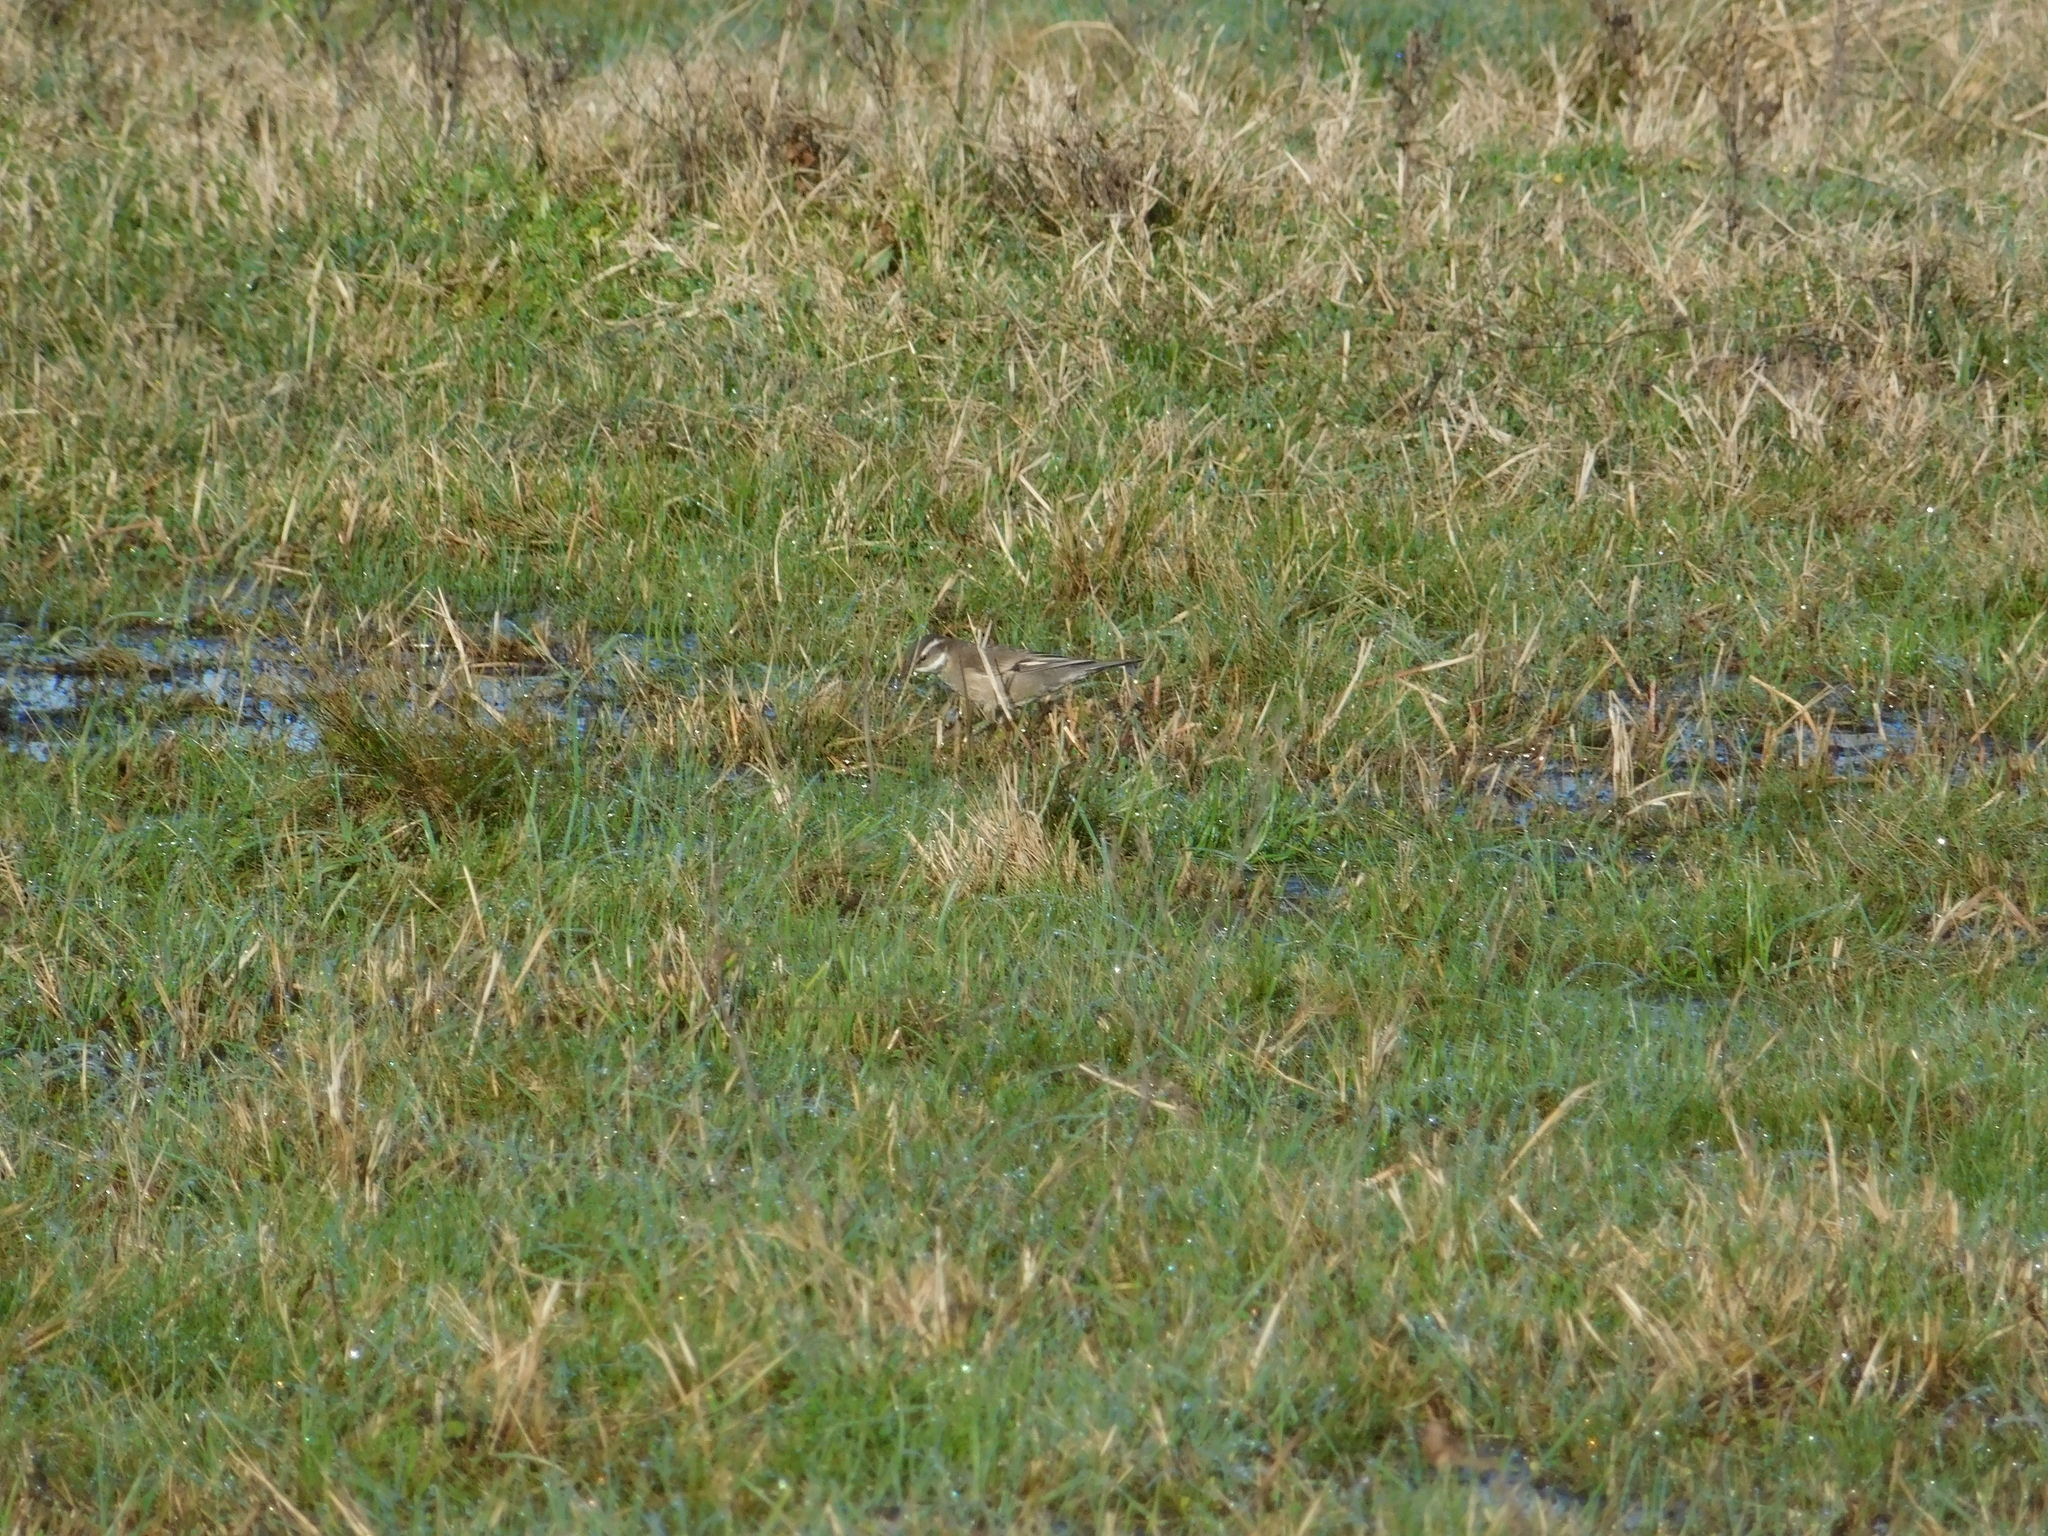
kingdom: Animalia
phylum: Chordata
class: Aves
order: Passeriformes
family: Furnariidae
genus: Cinclodes
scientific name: Cinclodes fuscus
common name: Buff-winged cinclodes
